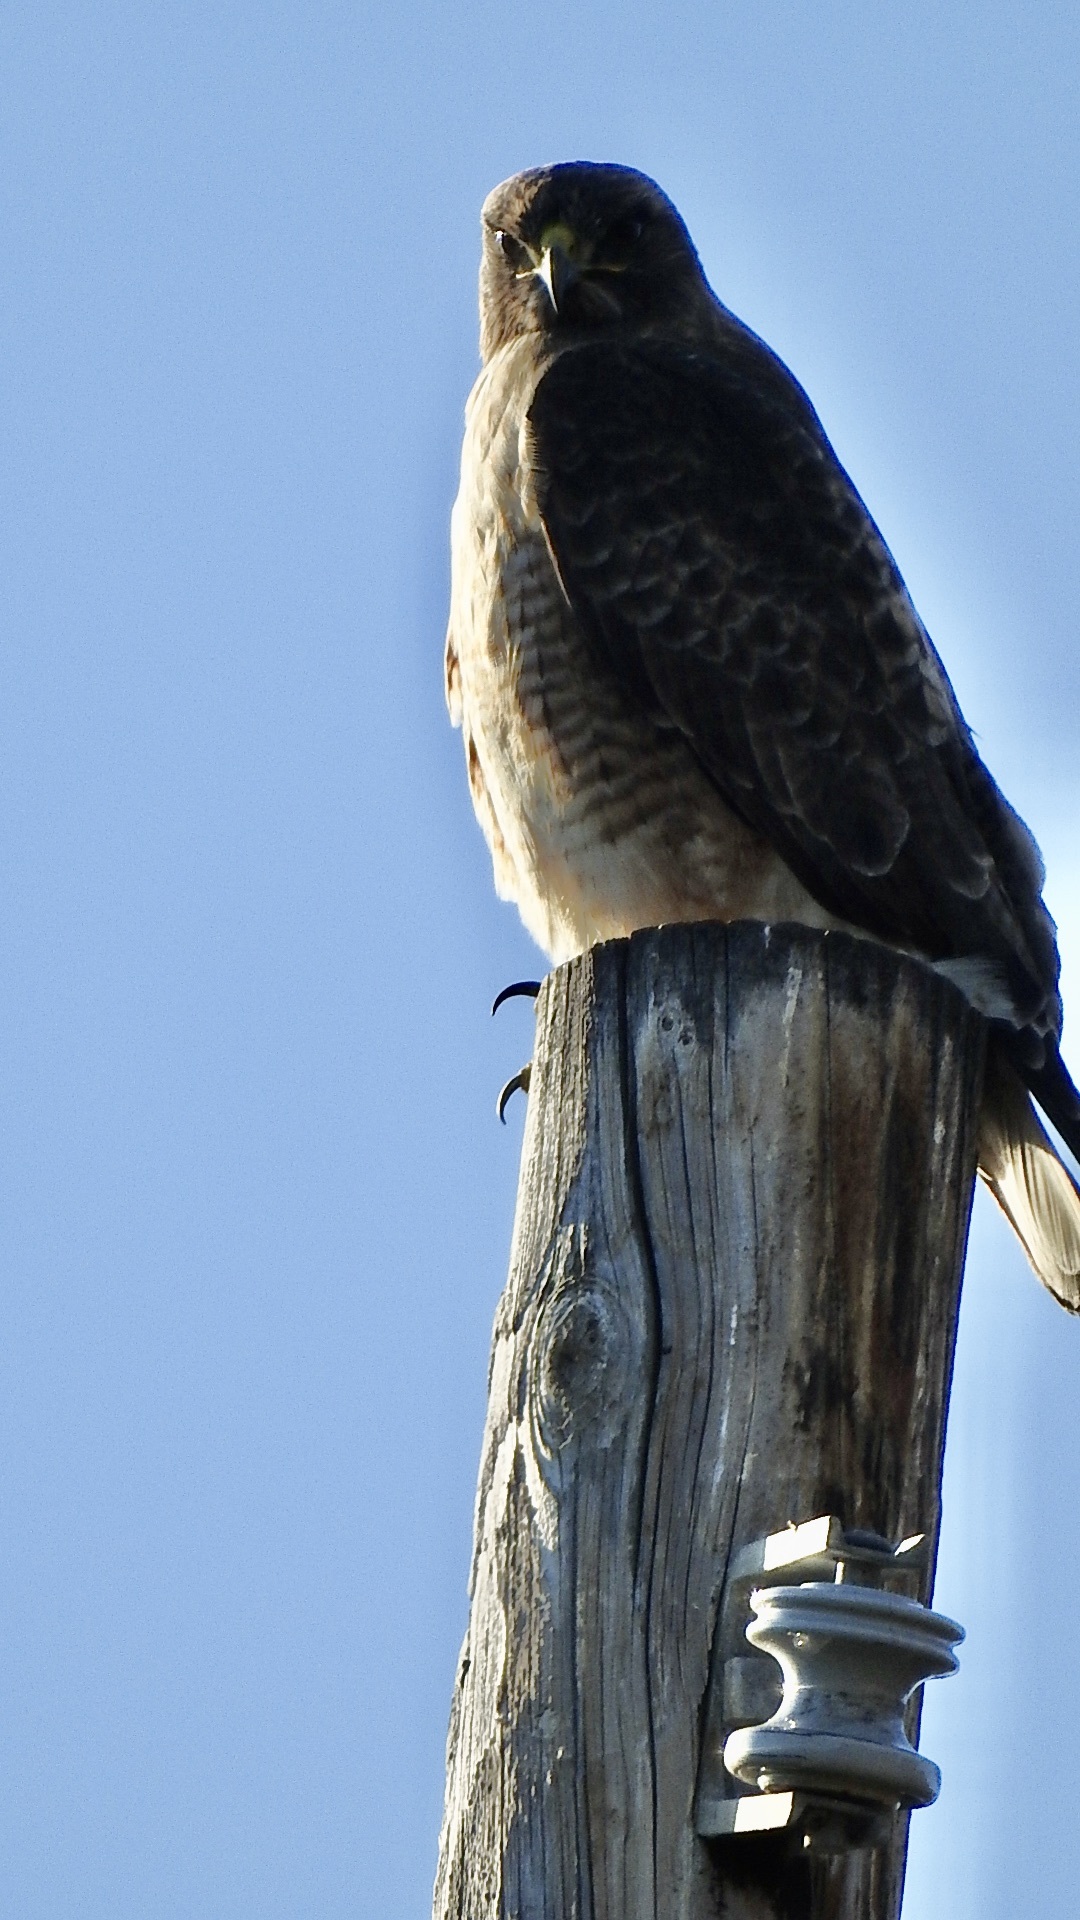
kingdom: Animalia
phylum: Chordata
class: Aves
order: Accipitriformes
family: Accipitridae
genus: Buteo
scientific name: Buteo jamaicensis
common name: Red-tailed hawk
